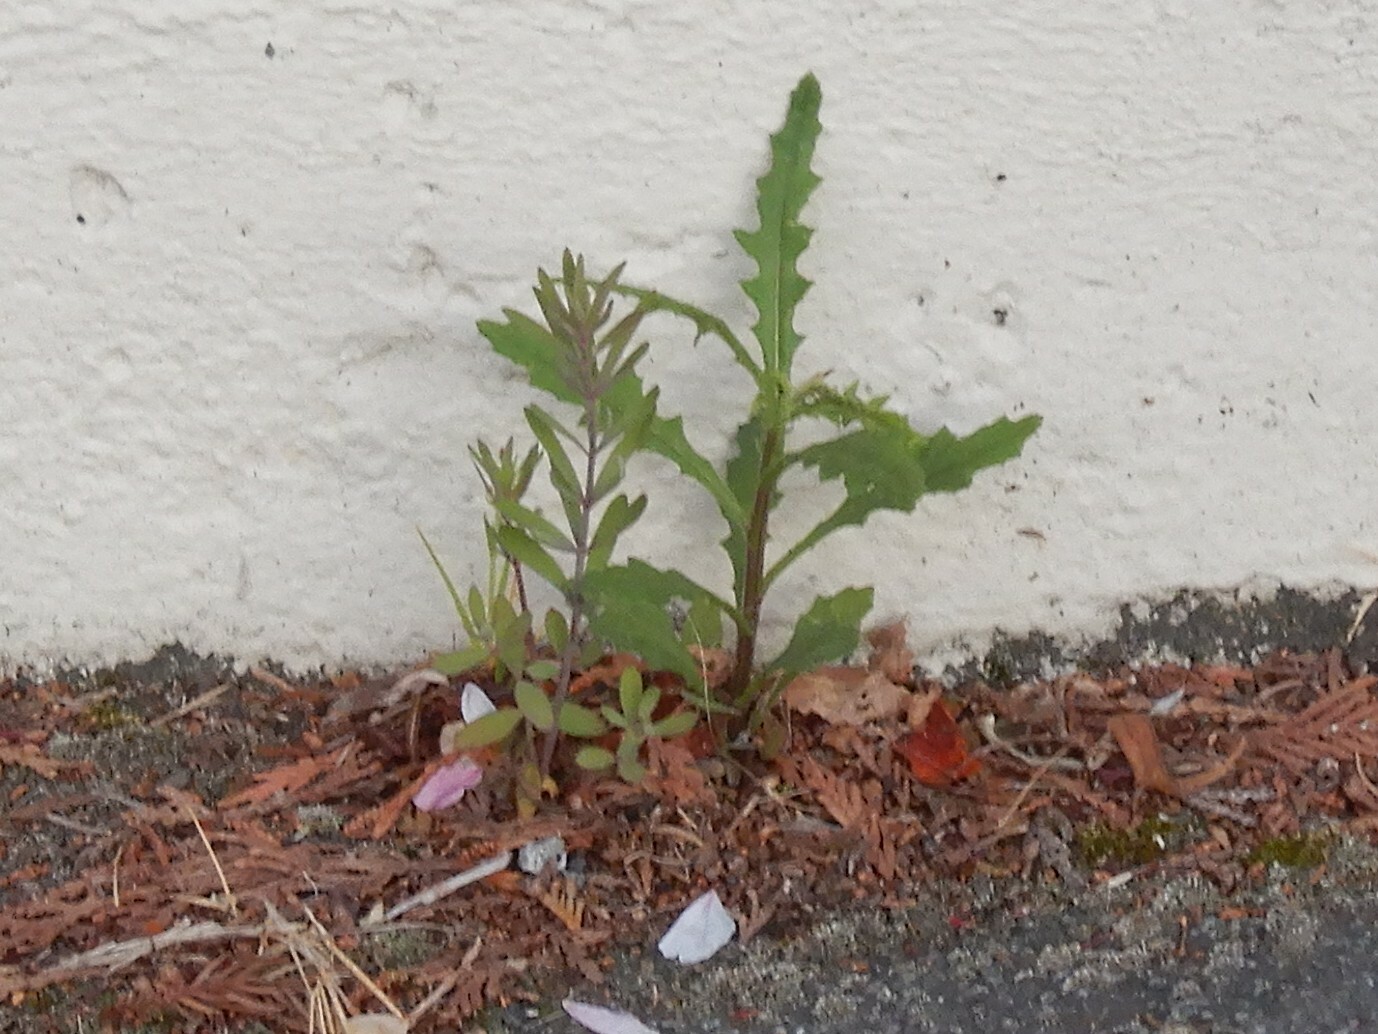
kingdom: Plantae
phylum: Tracheophyta
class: Magnoliopsida
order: Asterales
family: Asteraceae
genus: Senecio
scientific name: Senecio hispidulus
